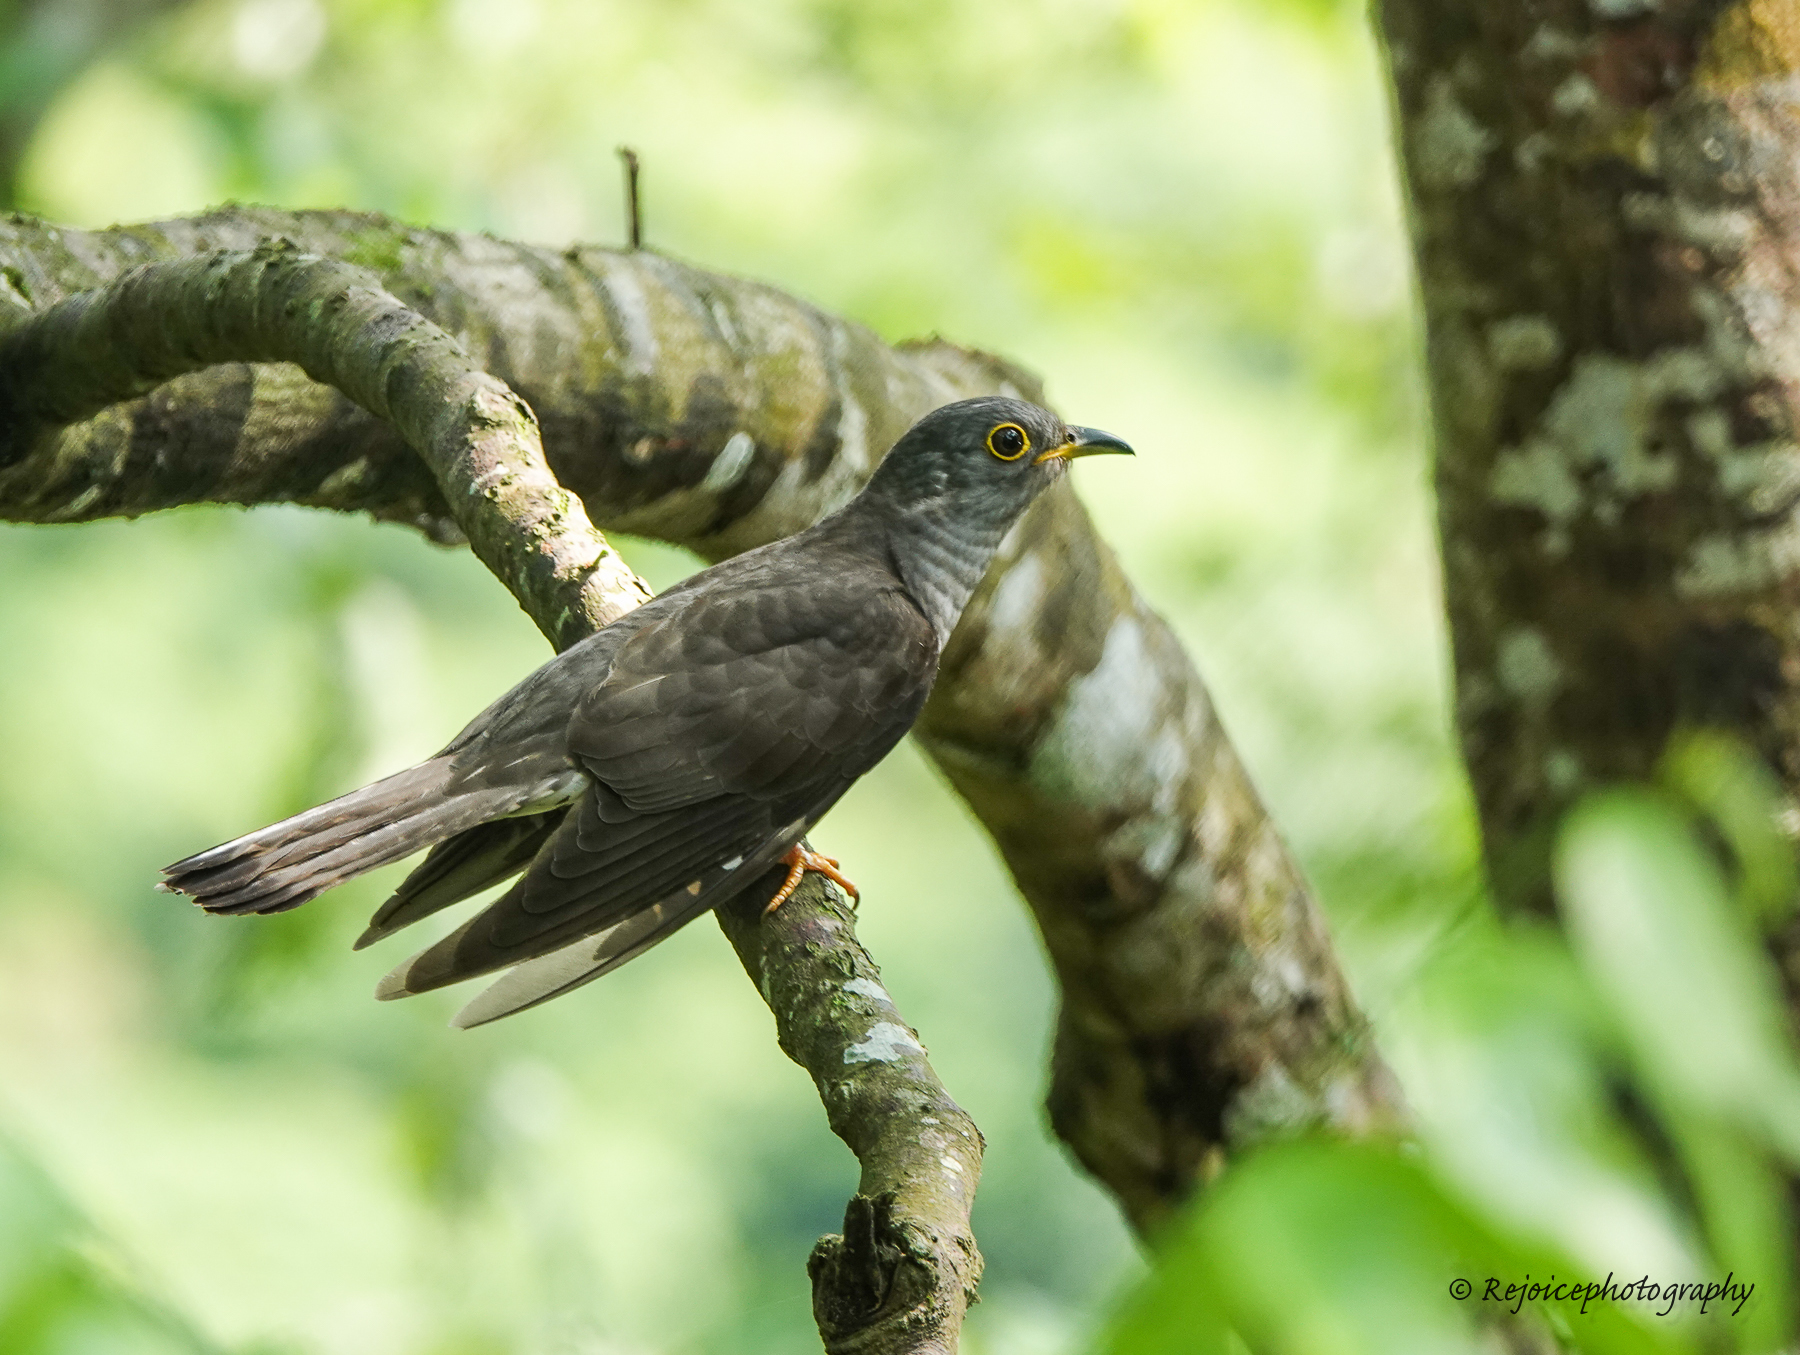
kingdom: Animalia
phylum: Chordata
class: Aves
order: Cuculiformes
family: Cuculidae
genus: Cuculus
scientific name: Cuculus micropterus
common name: Indian cuckoo
